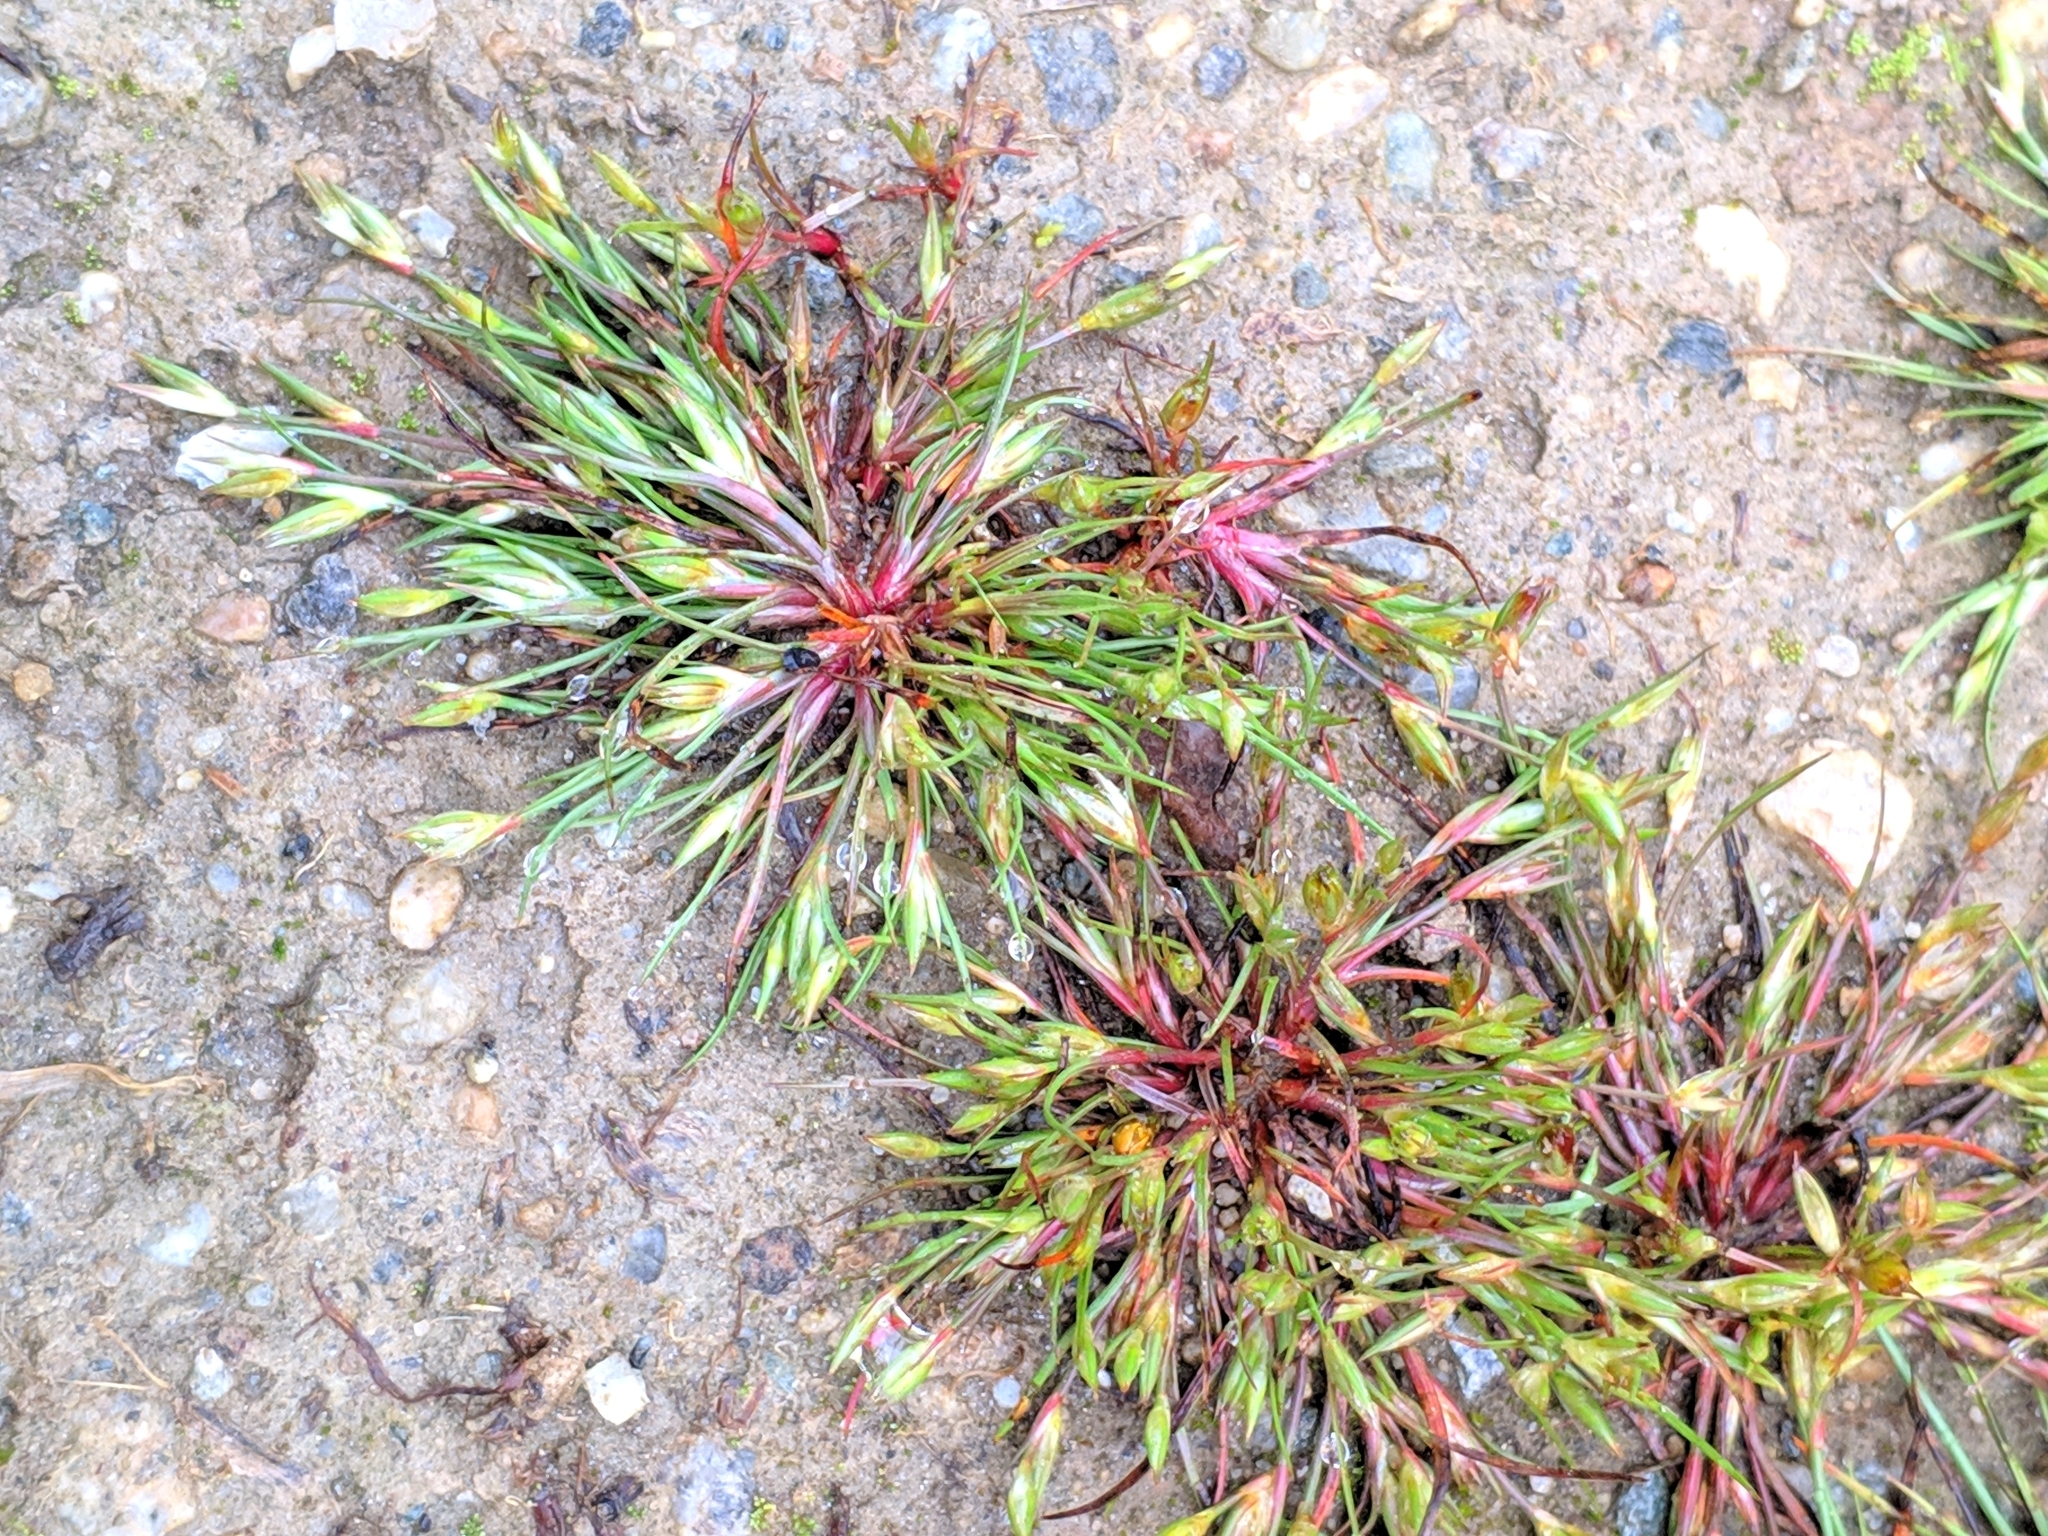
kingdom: Plantae
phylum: Tracheophyta
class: Liliopsida
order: Poales
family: Juncaceae
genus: Juncus
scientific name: Juncus ranarius
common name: Frog rush
